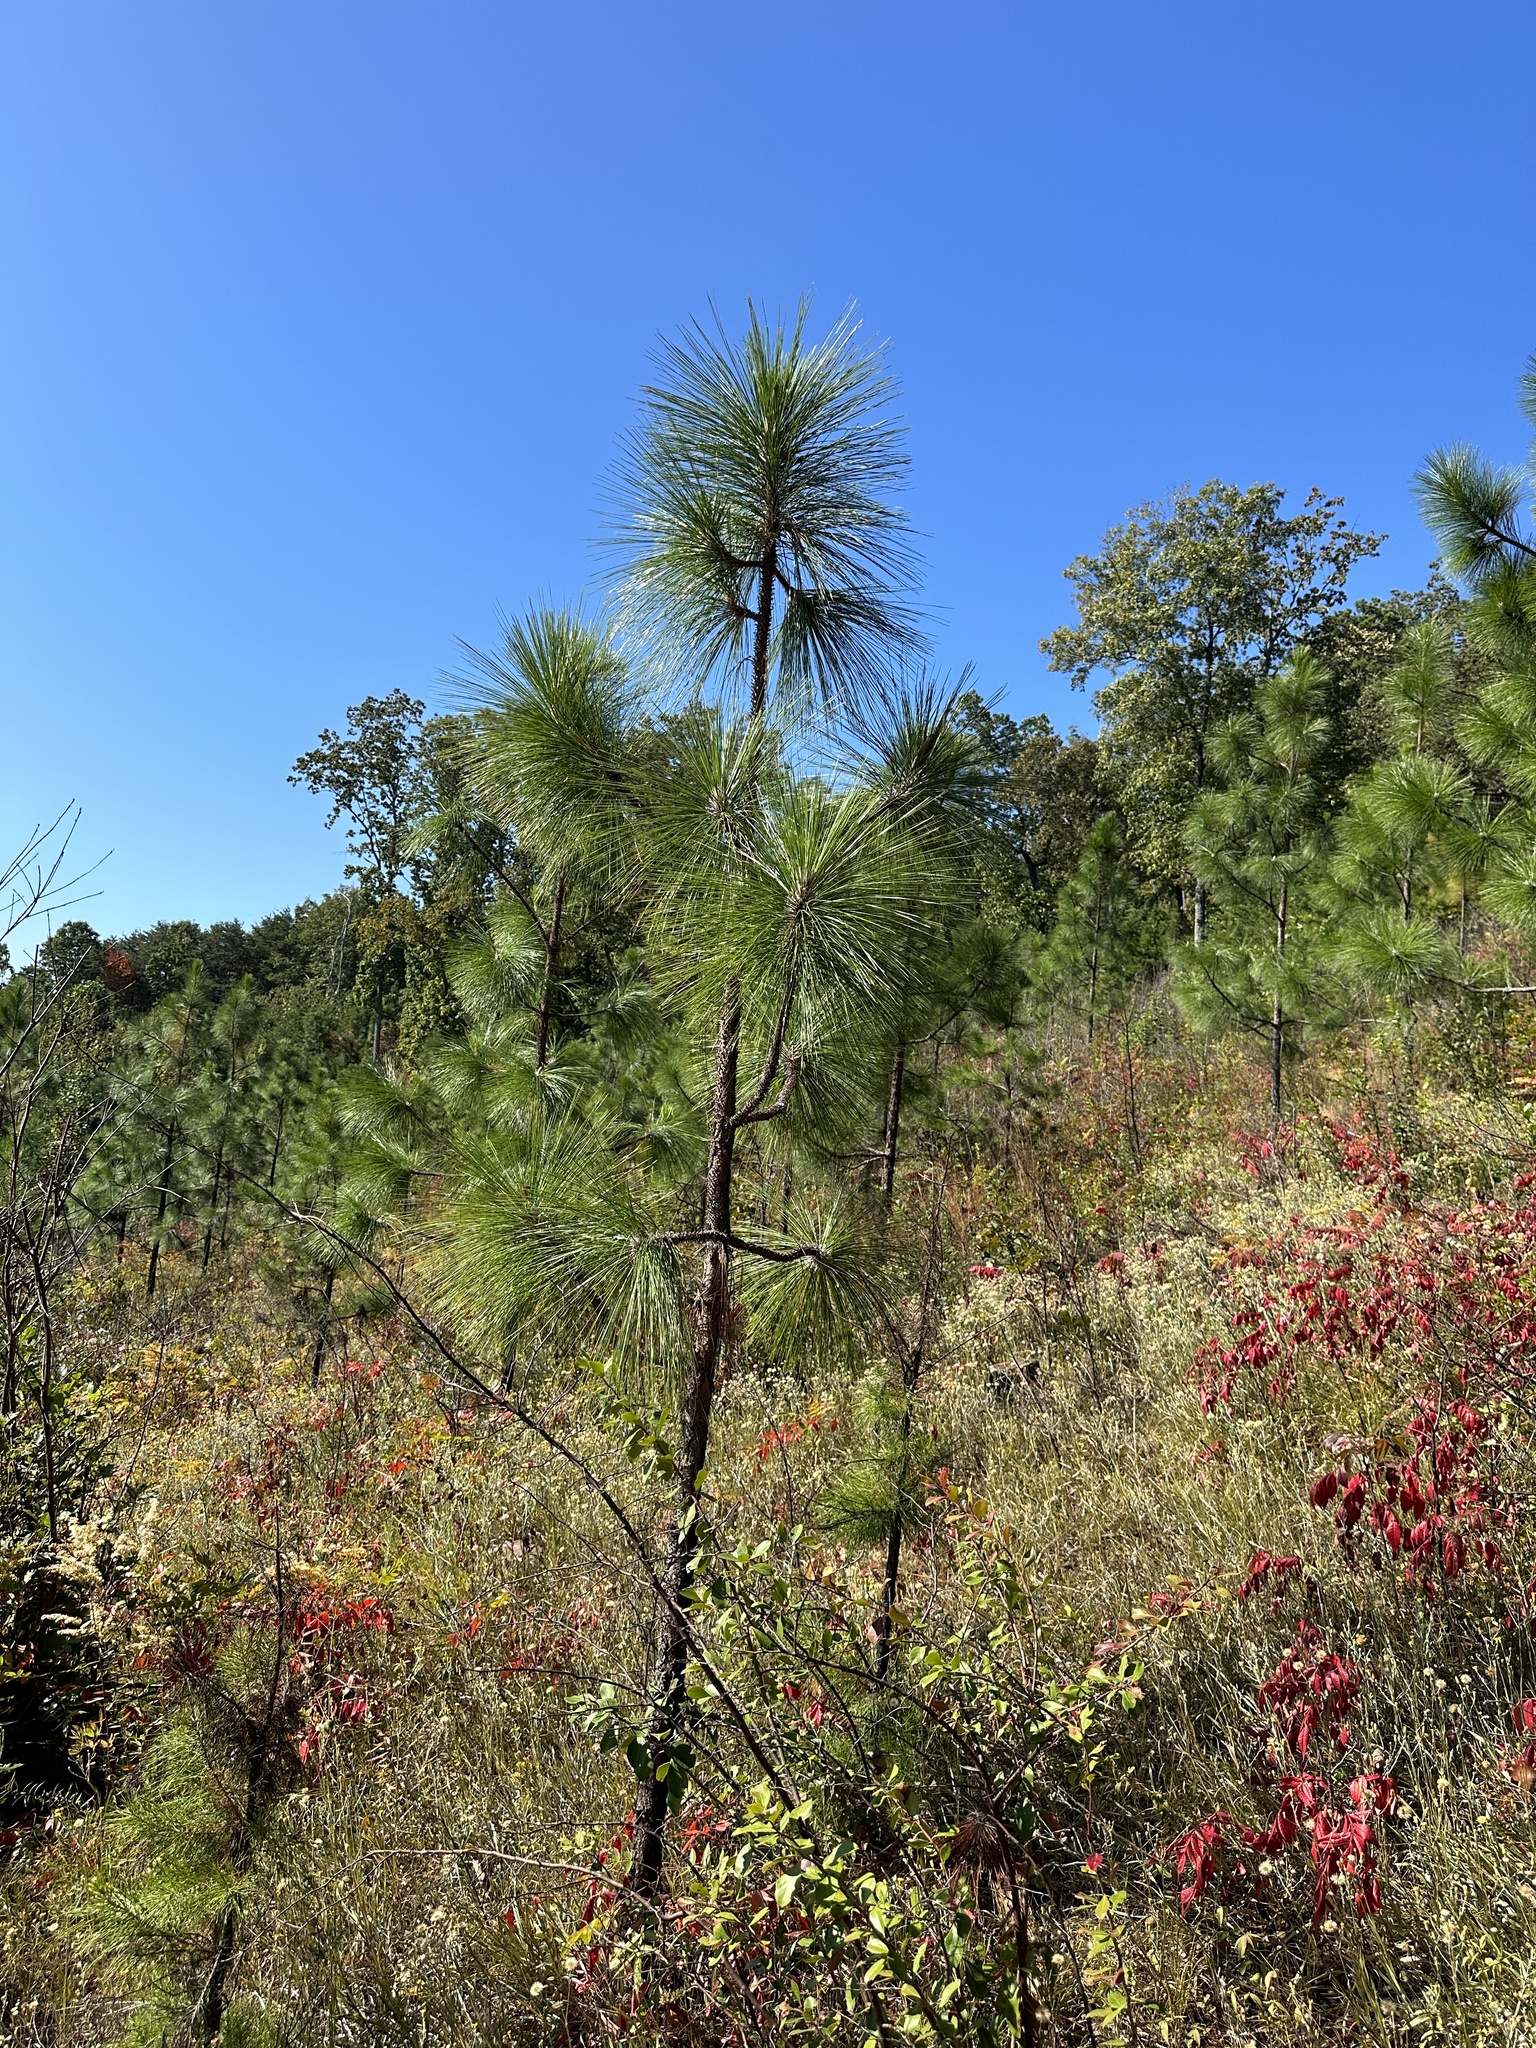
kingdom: Plantae
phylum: Tracheophyta
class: Pinopsida
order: Pinales
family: Pinaceae
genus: Pinus
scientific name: Pinus palustris
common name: Longleaf pine
